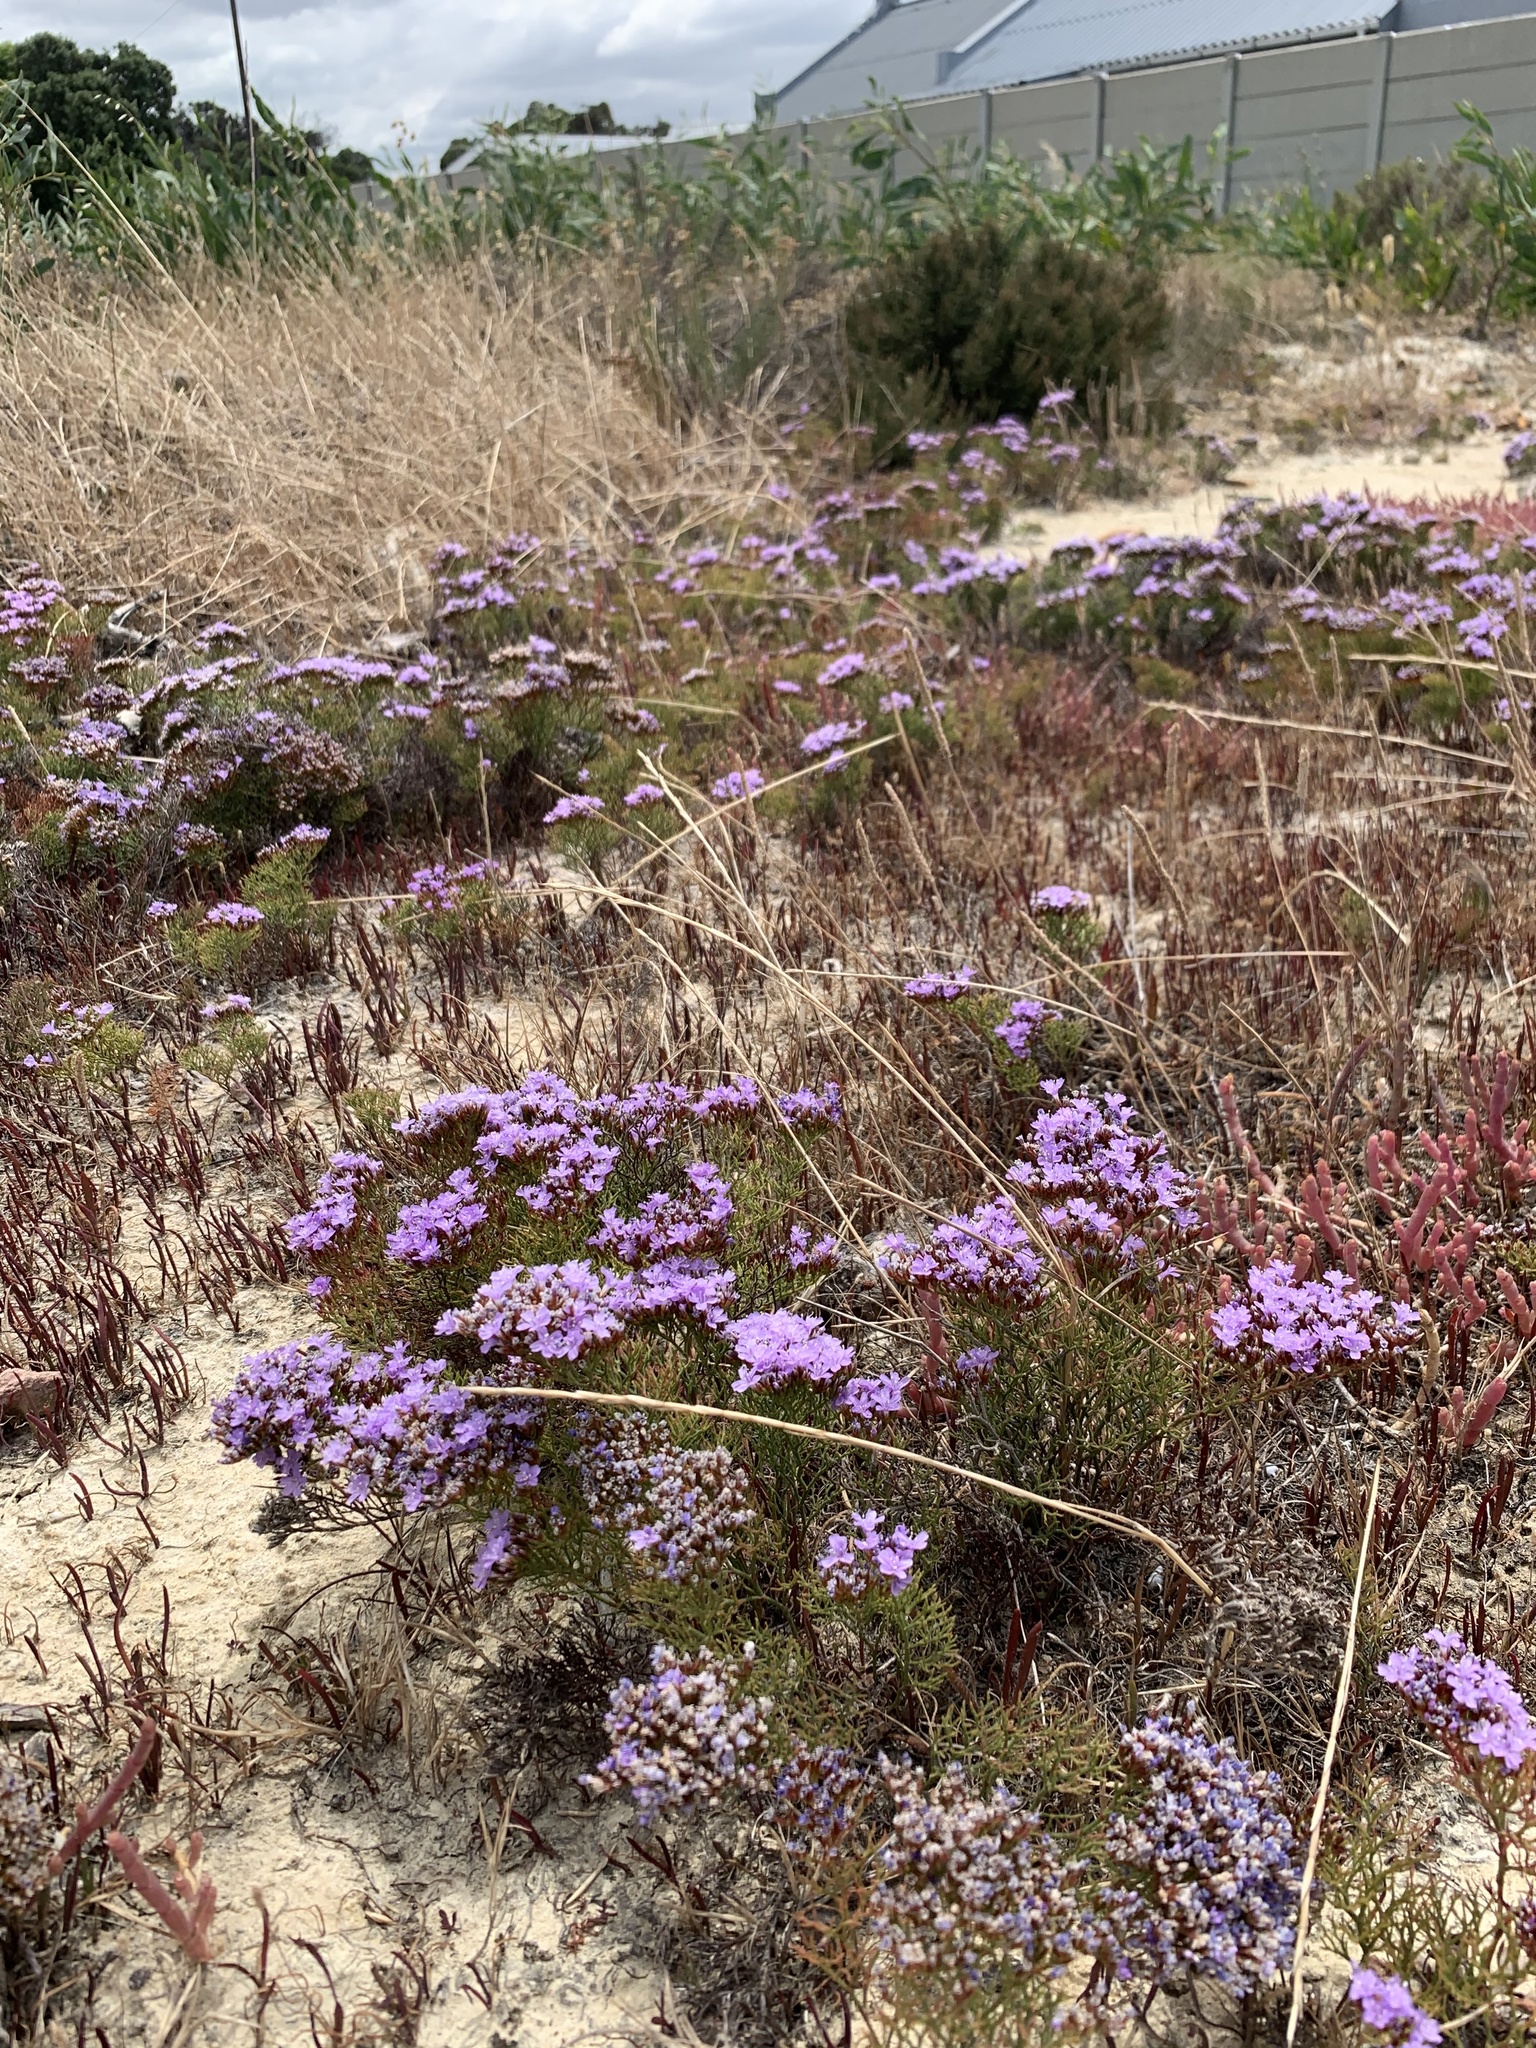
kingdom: Plantae
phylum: Tracheophyta
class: Magnoliopsida
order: Caryophyllales
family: Plumbaginaceae
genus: Limonium
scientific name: Limonium scabrum
